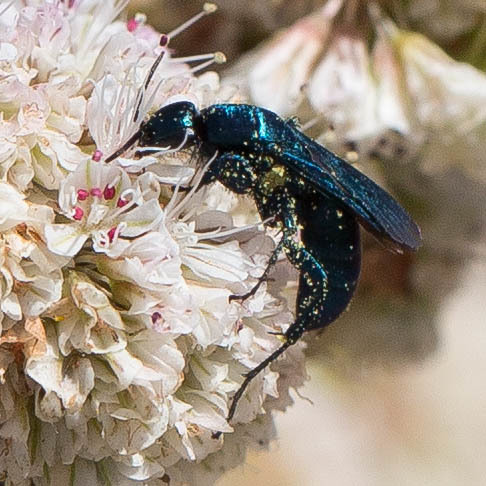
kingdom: Animalia
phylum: Arthropoda
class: Insecta
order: Hymenoptera
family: Pompilidae
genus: Aporus
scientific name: Aporus hirsutus
